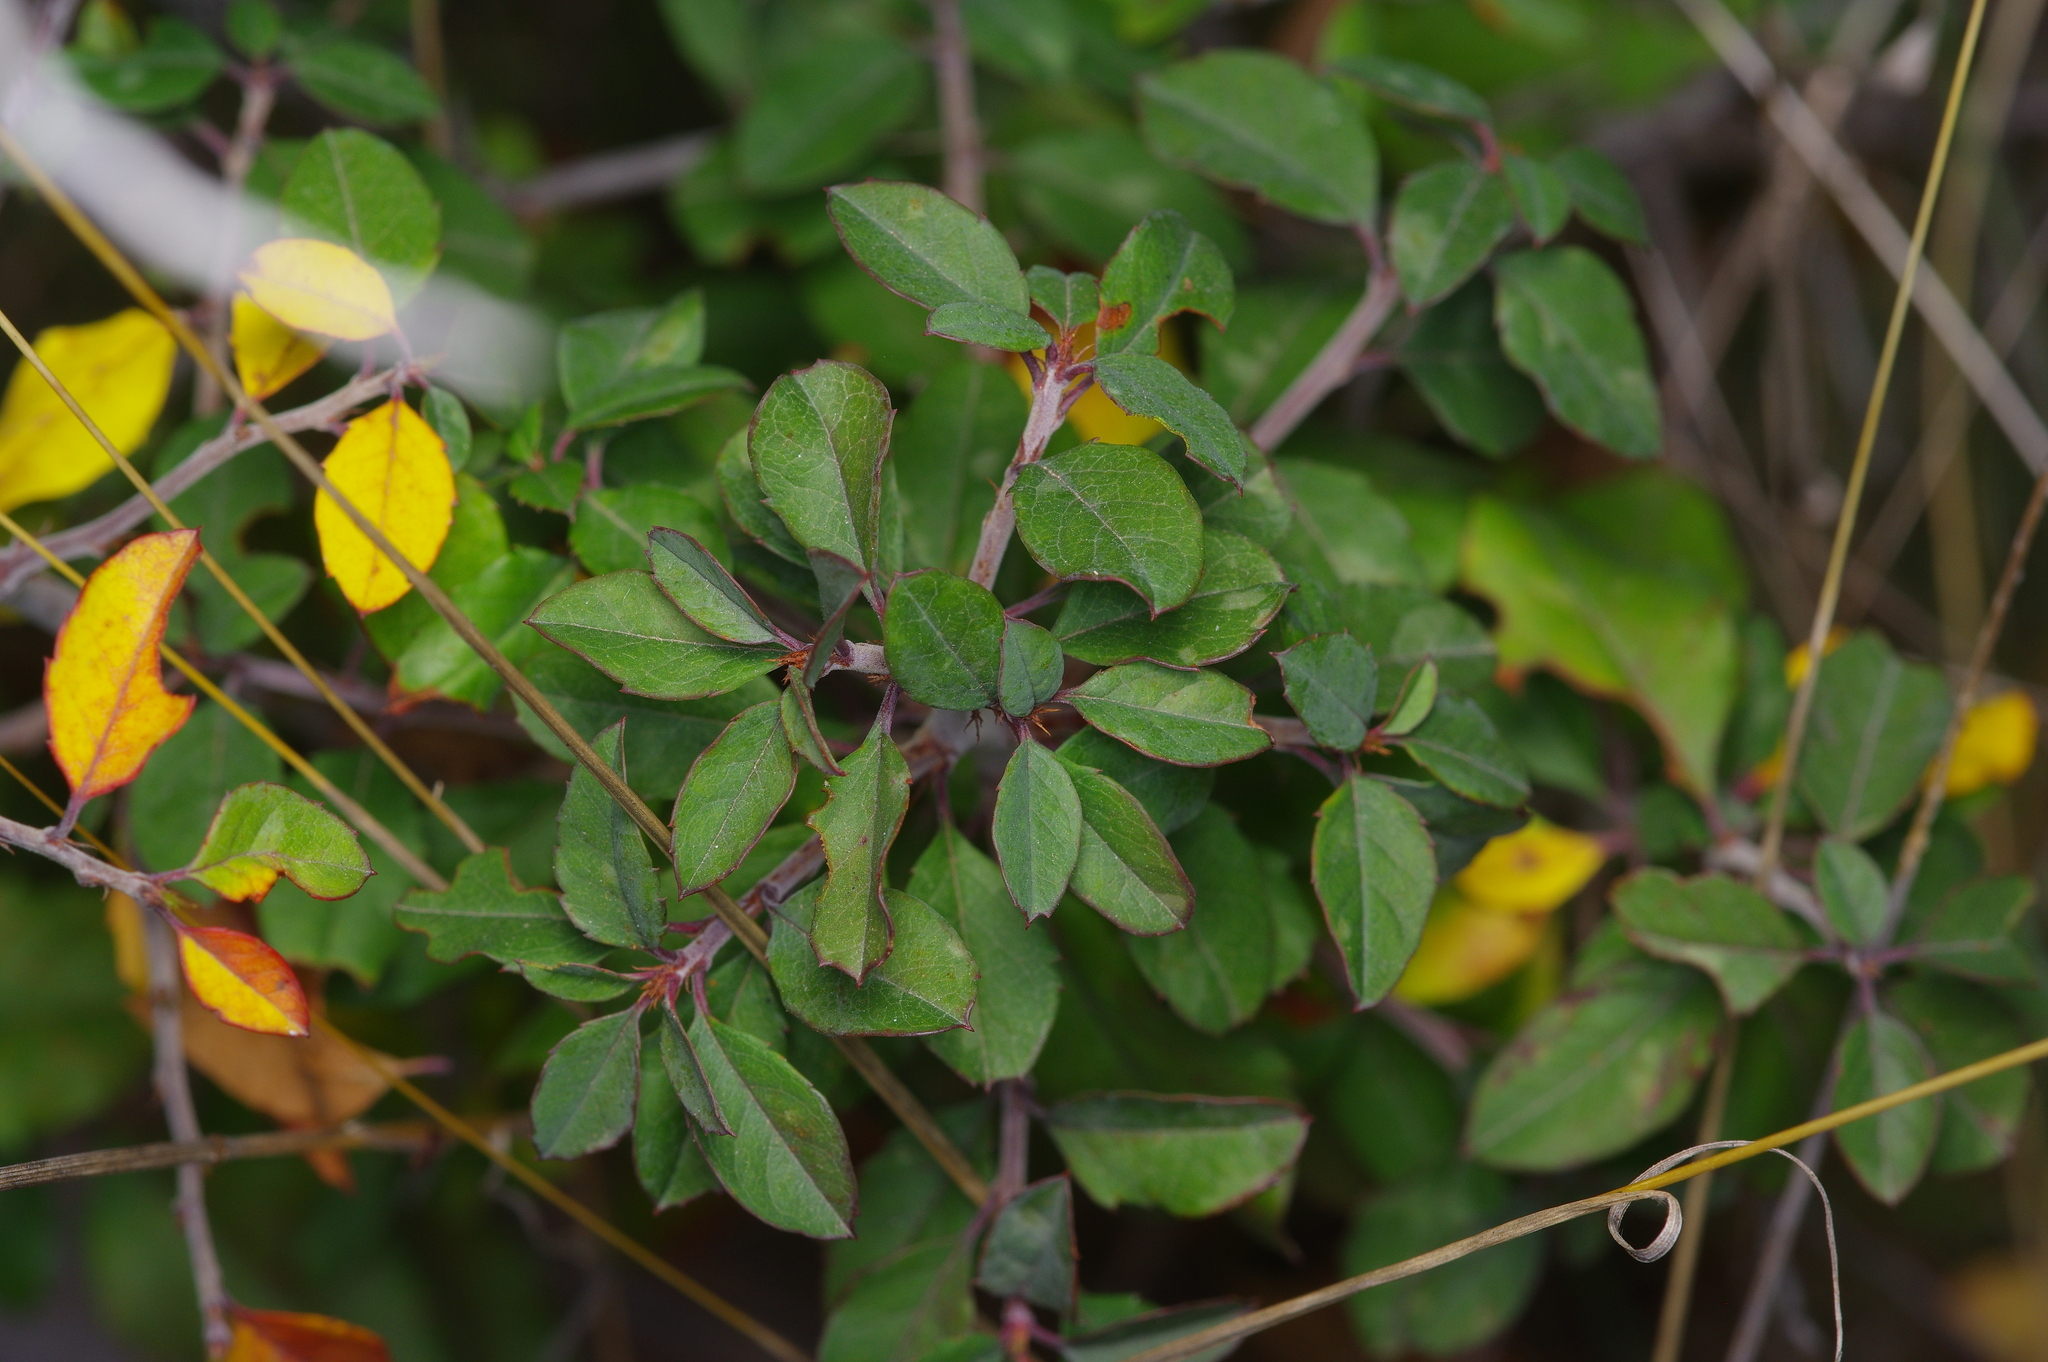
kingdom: Plantae
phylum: Tracheophyta
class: Magnoliopsida
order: Rosales
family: Rosaceae
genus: Prunus
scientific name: Prunus minutiflora
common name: Texas almond
